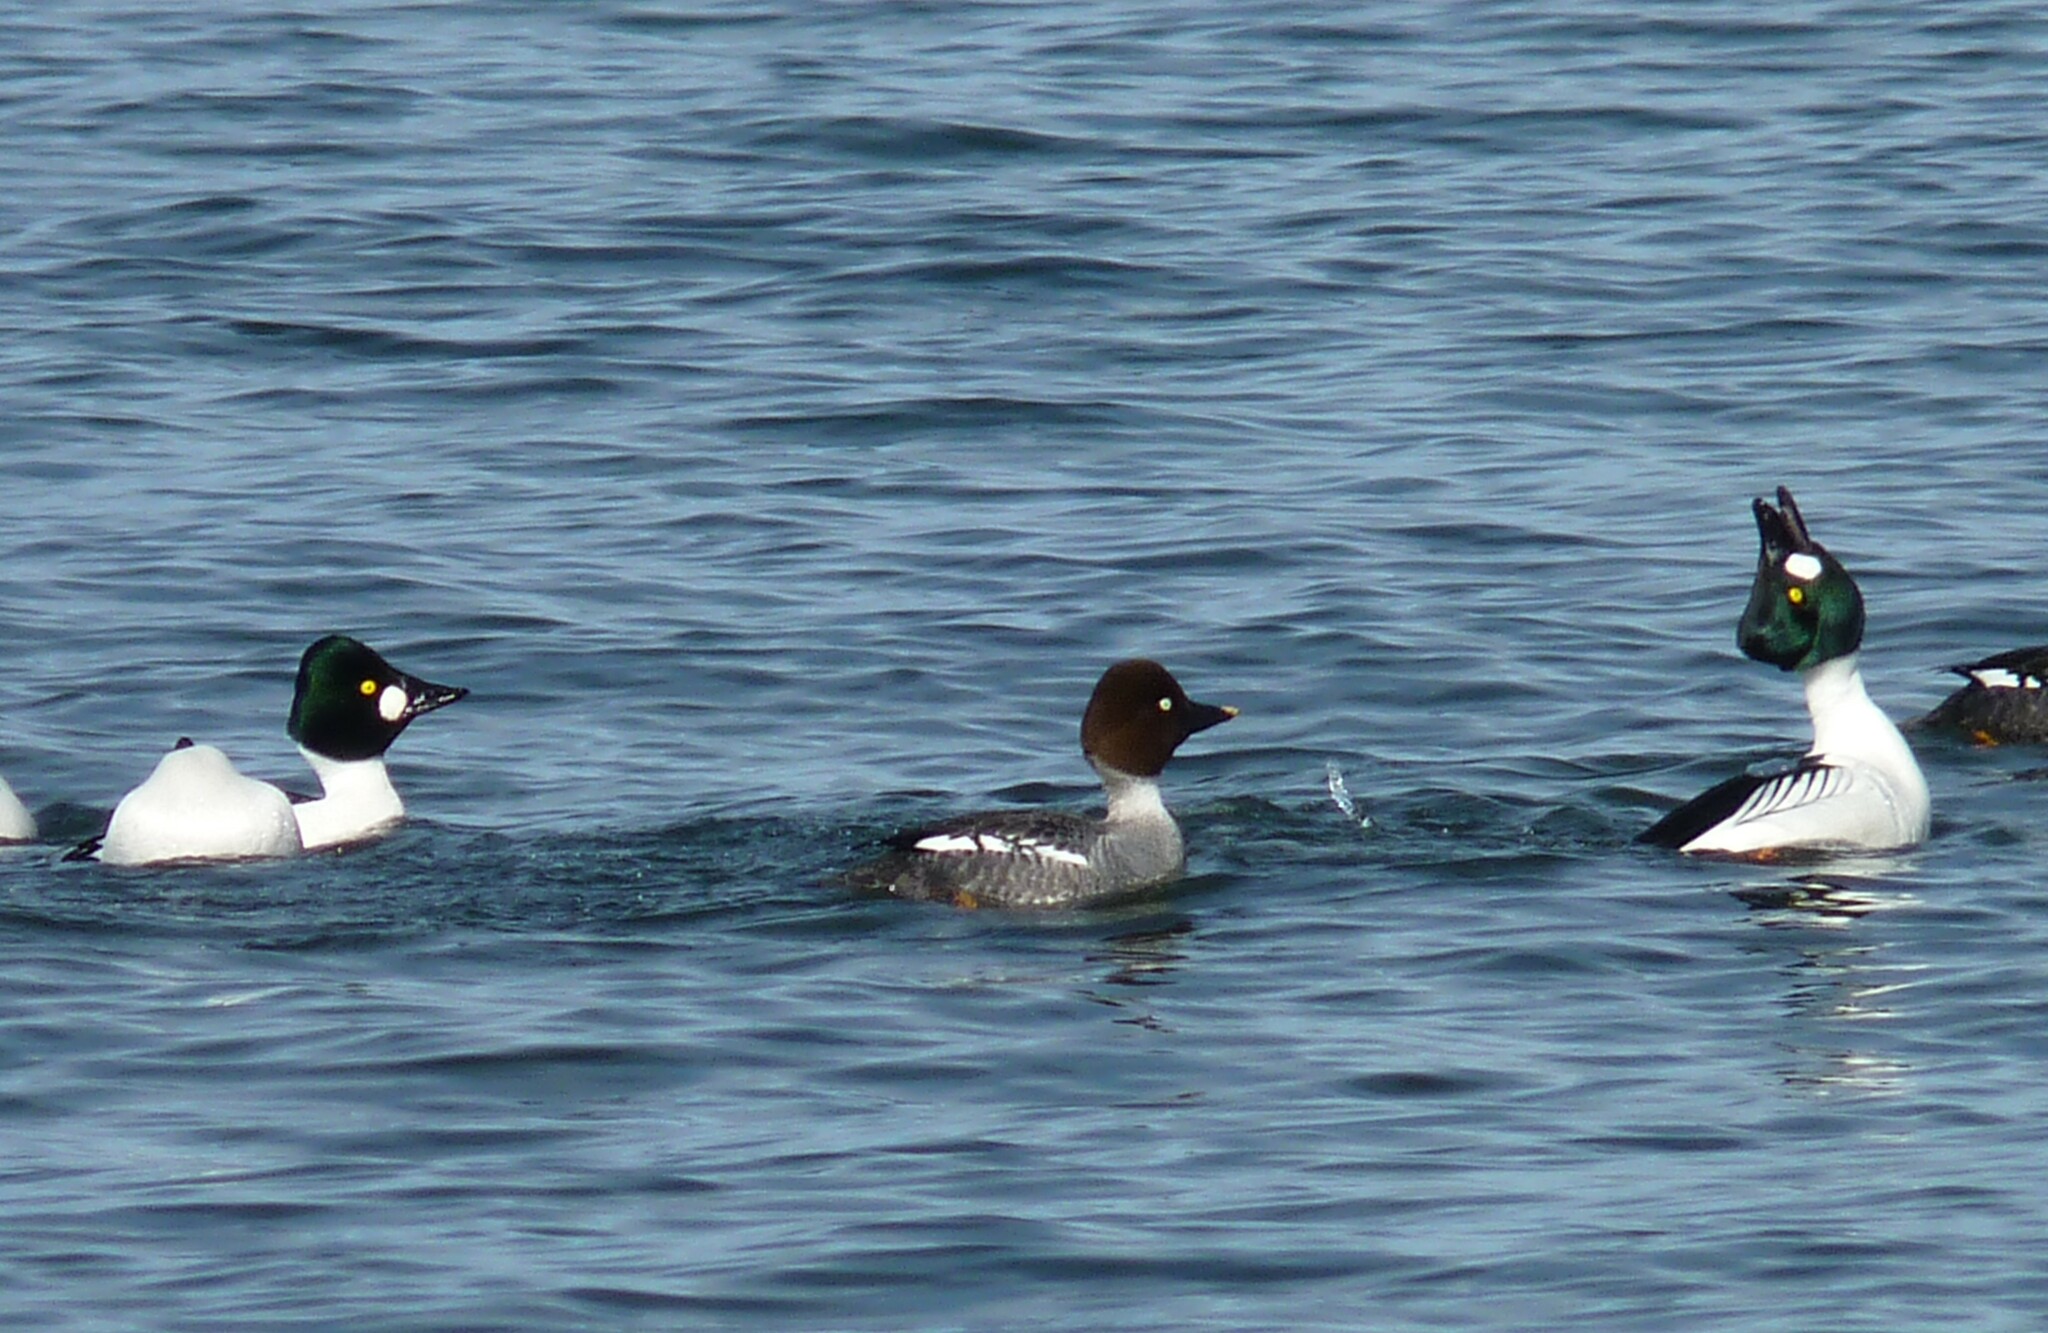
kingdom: Animalia
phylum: Chordata
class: Aves
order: Anseriformes
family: Anatidae
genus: Bucephala
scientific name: Bucephala clangula
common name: Common goldeneye
